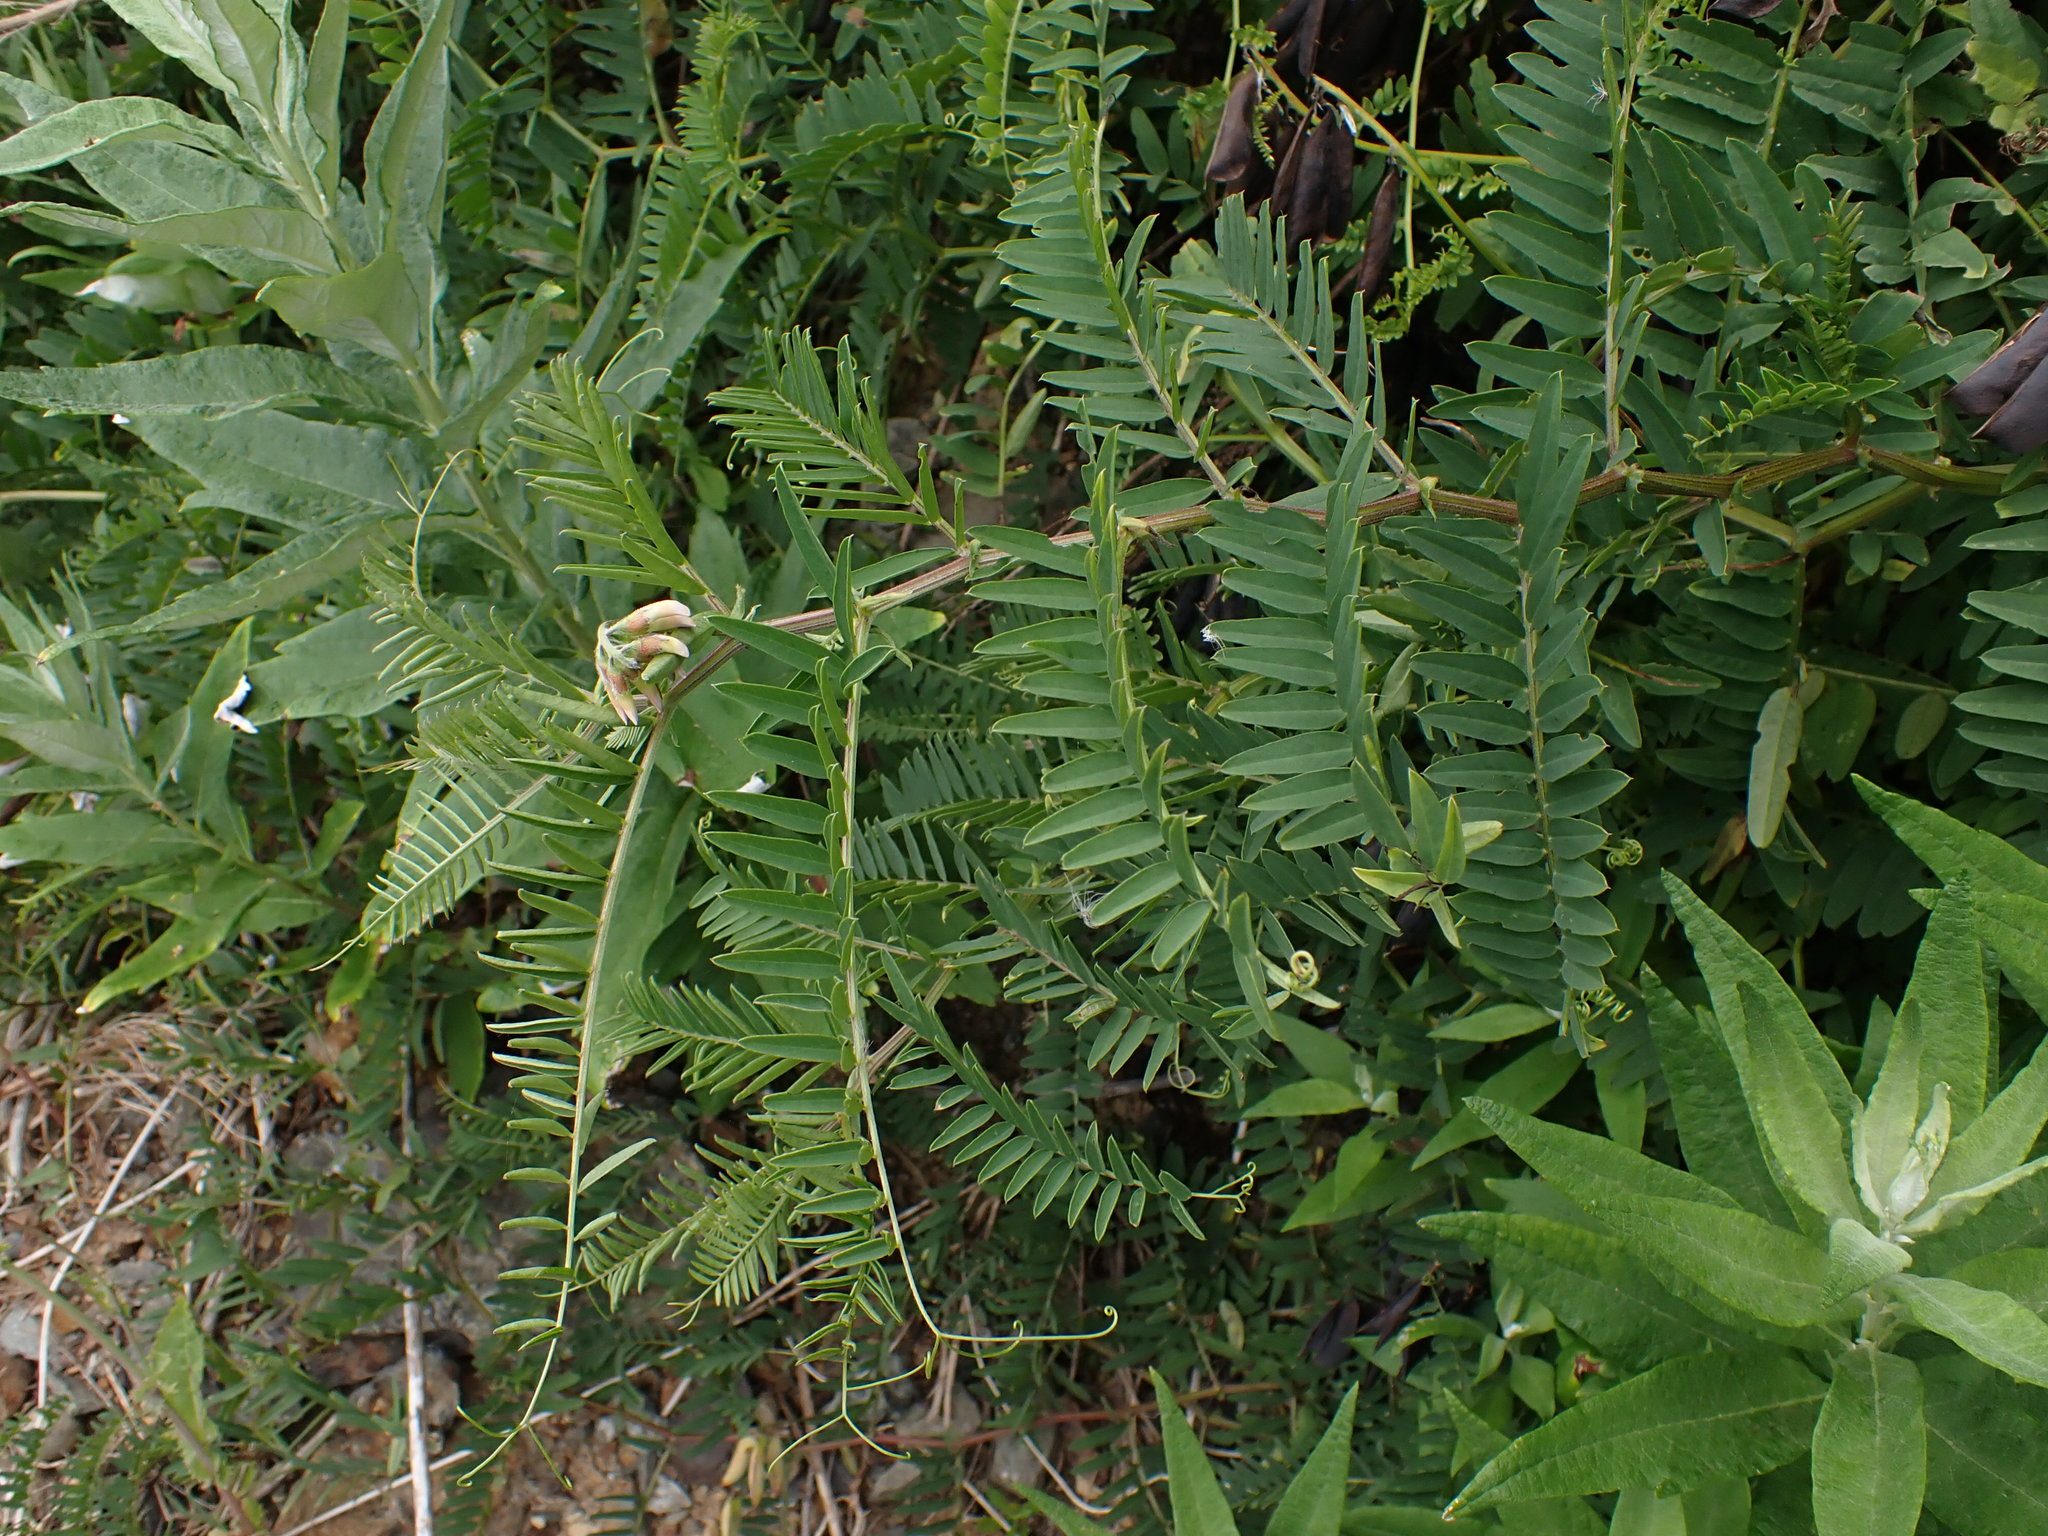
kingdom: Plantae
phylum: Tracheophyta
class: Magnoliopsida
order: Fabales
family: Fabaceae
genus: Vicia
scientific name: Vicia
